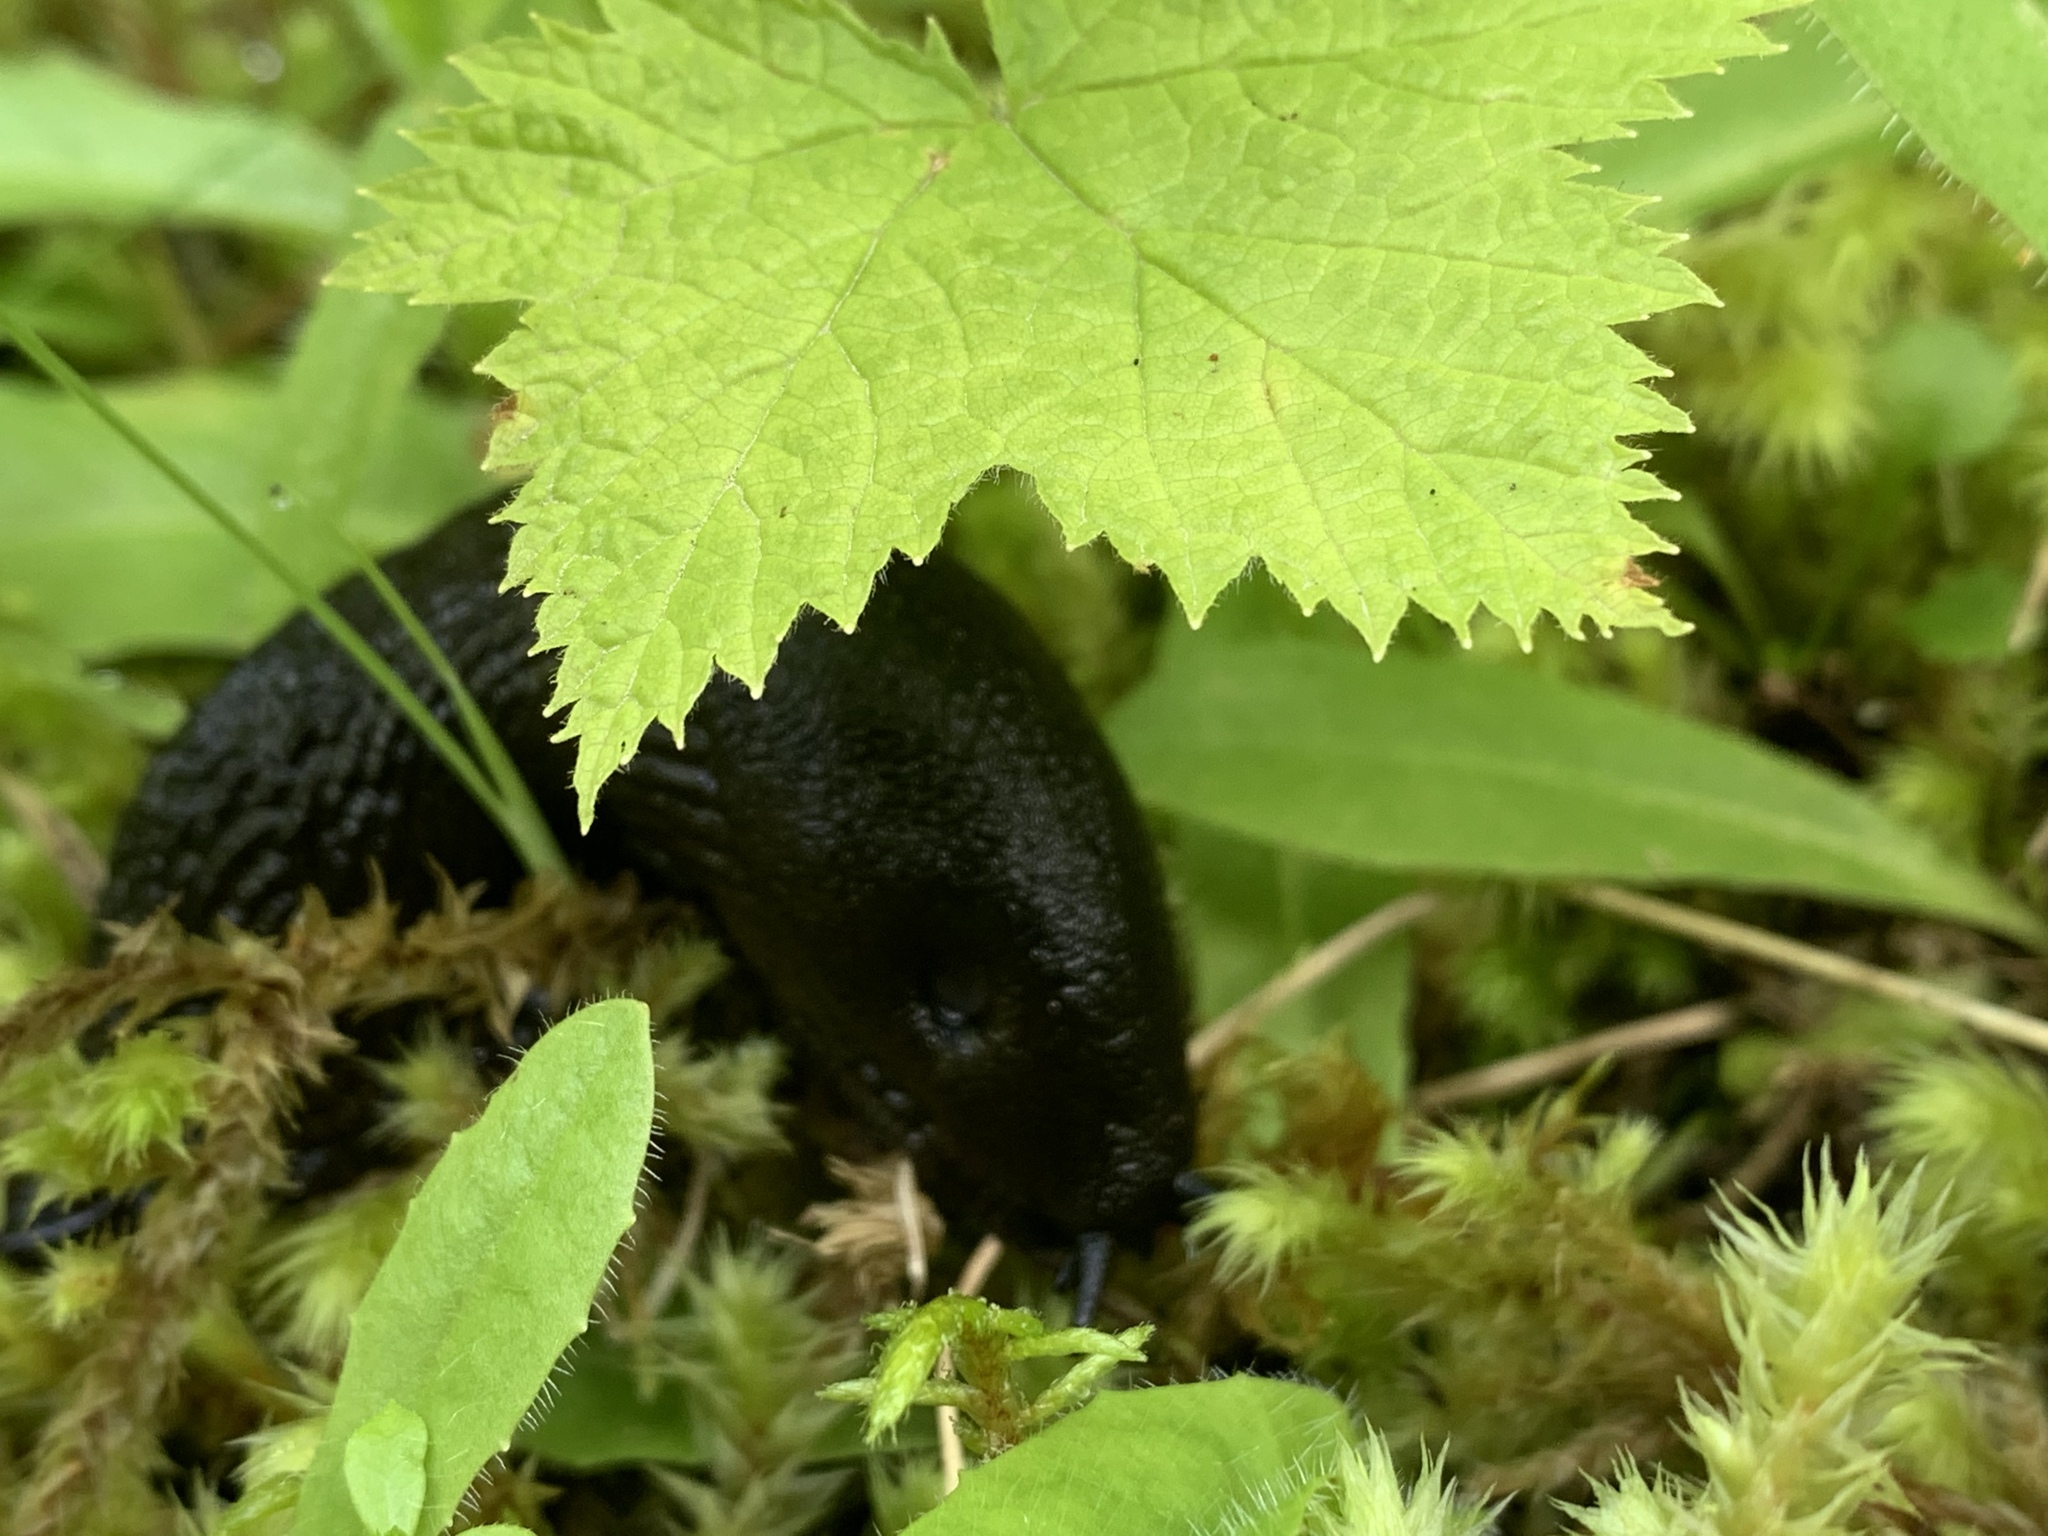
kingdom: Animalia
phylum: Mollusca
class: Gastropoda
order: Stylommatophora
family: Arionidae
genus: Arion
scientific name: Arion
